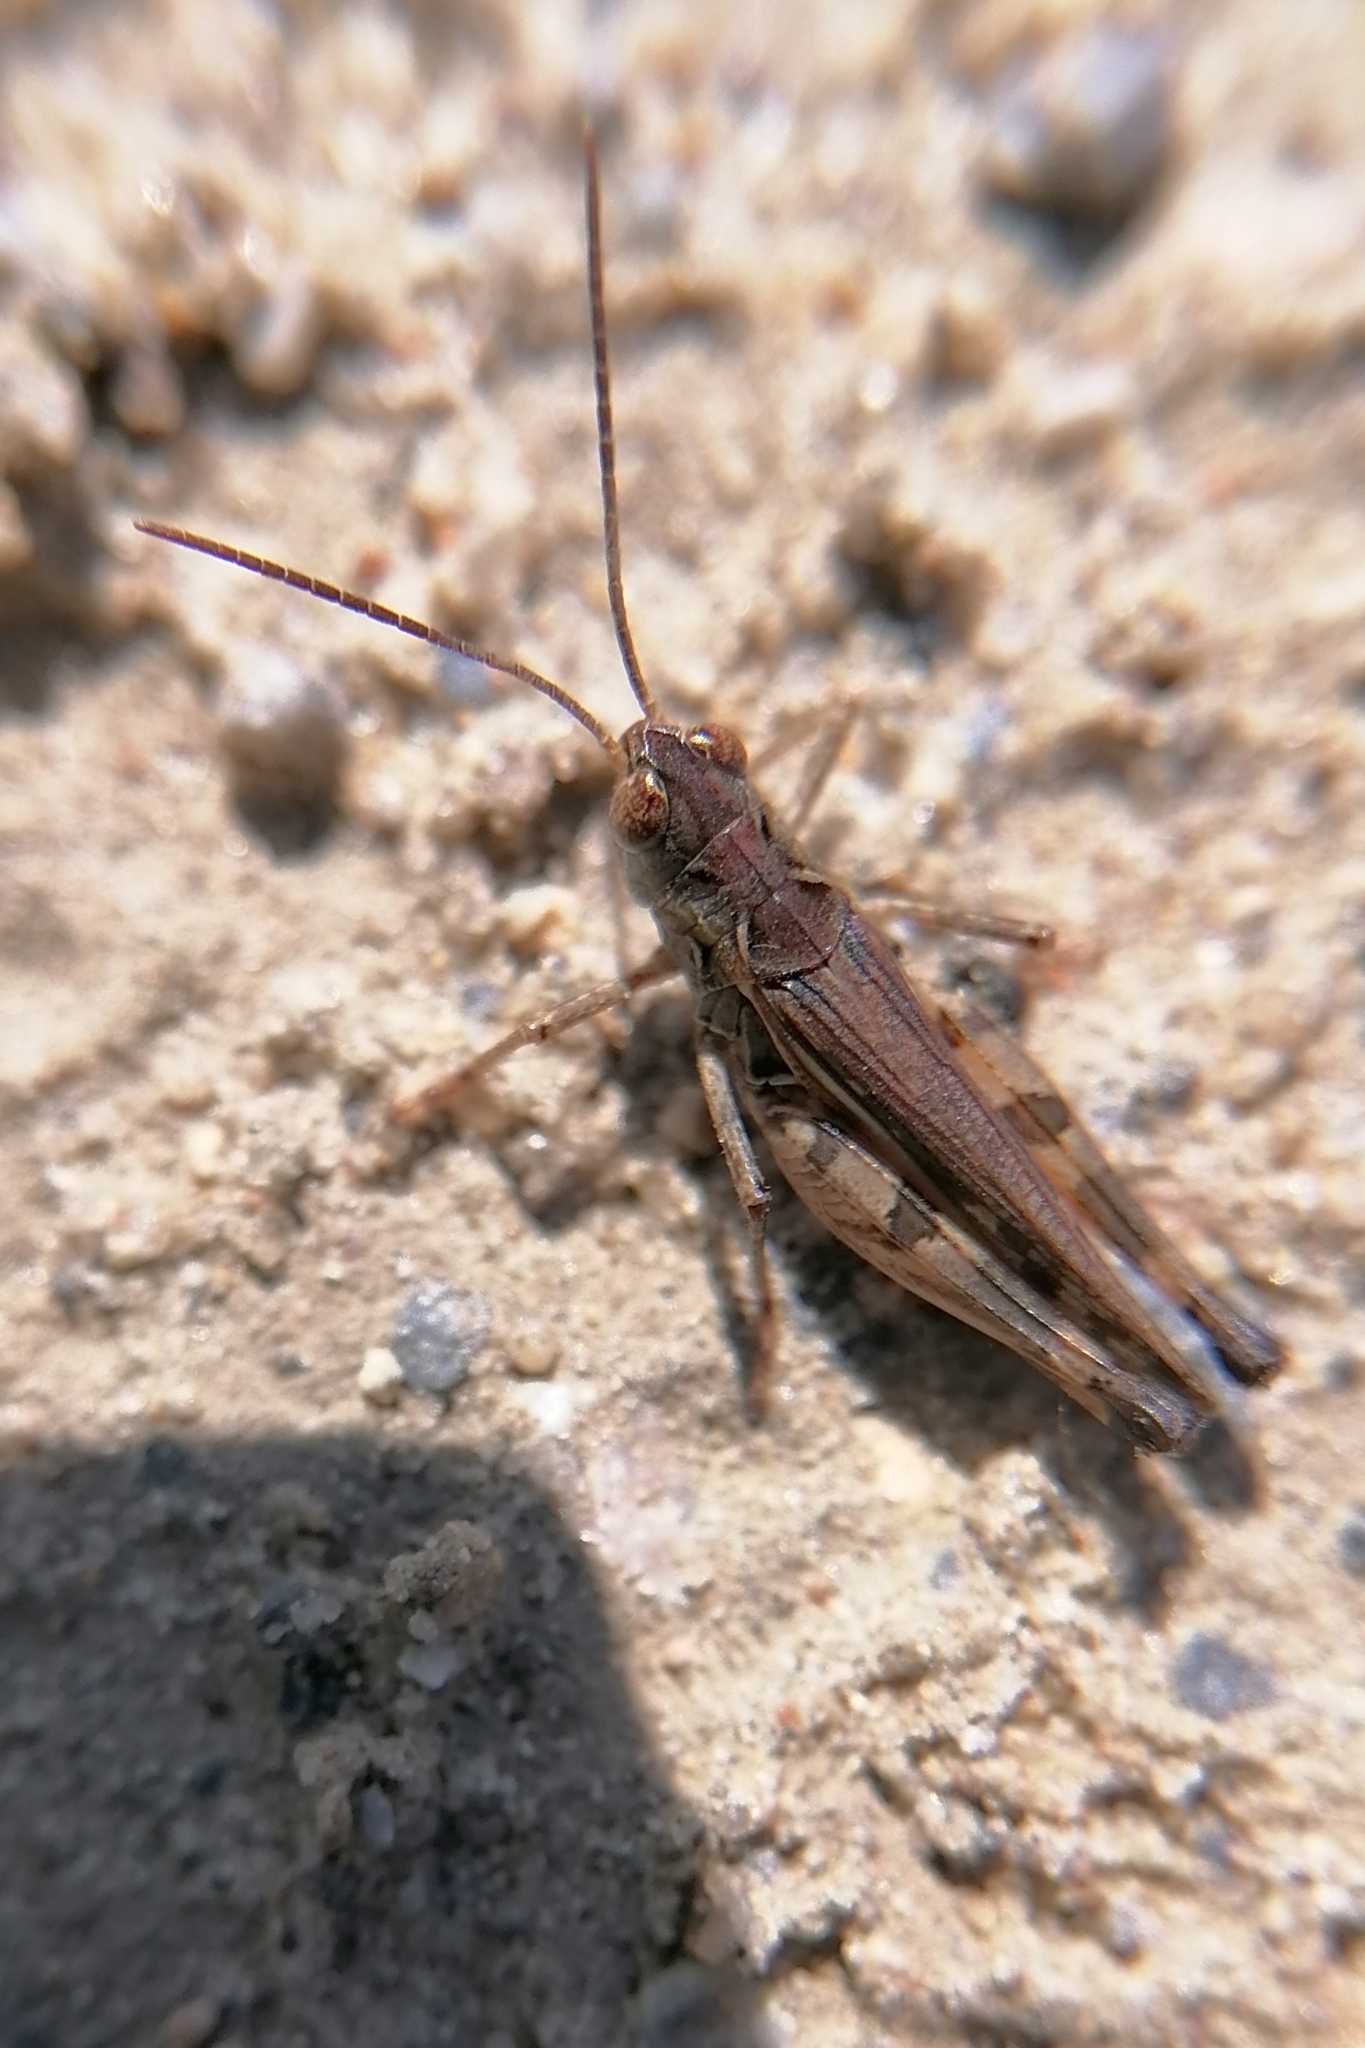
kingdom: Animalia
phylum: Arthropoda
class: Insecta
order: Orthoptera
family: Acrididae
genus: Dociostaurus
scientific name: Dociostaurus brevicollis
